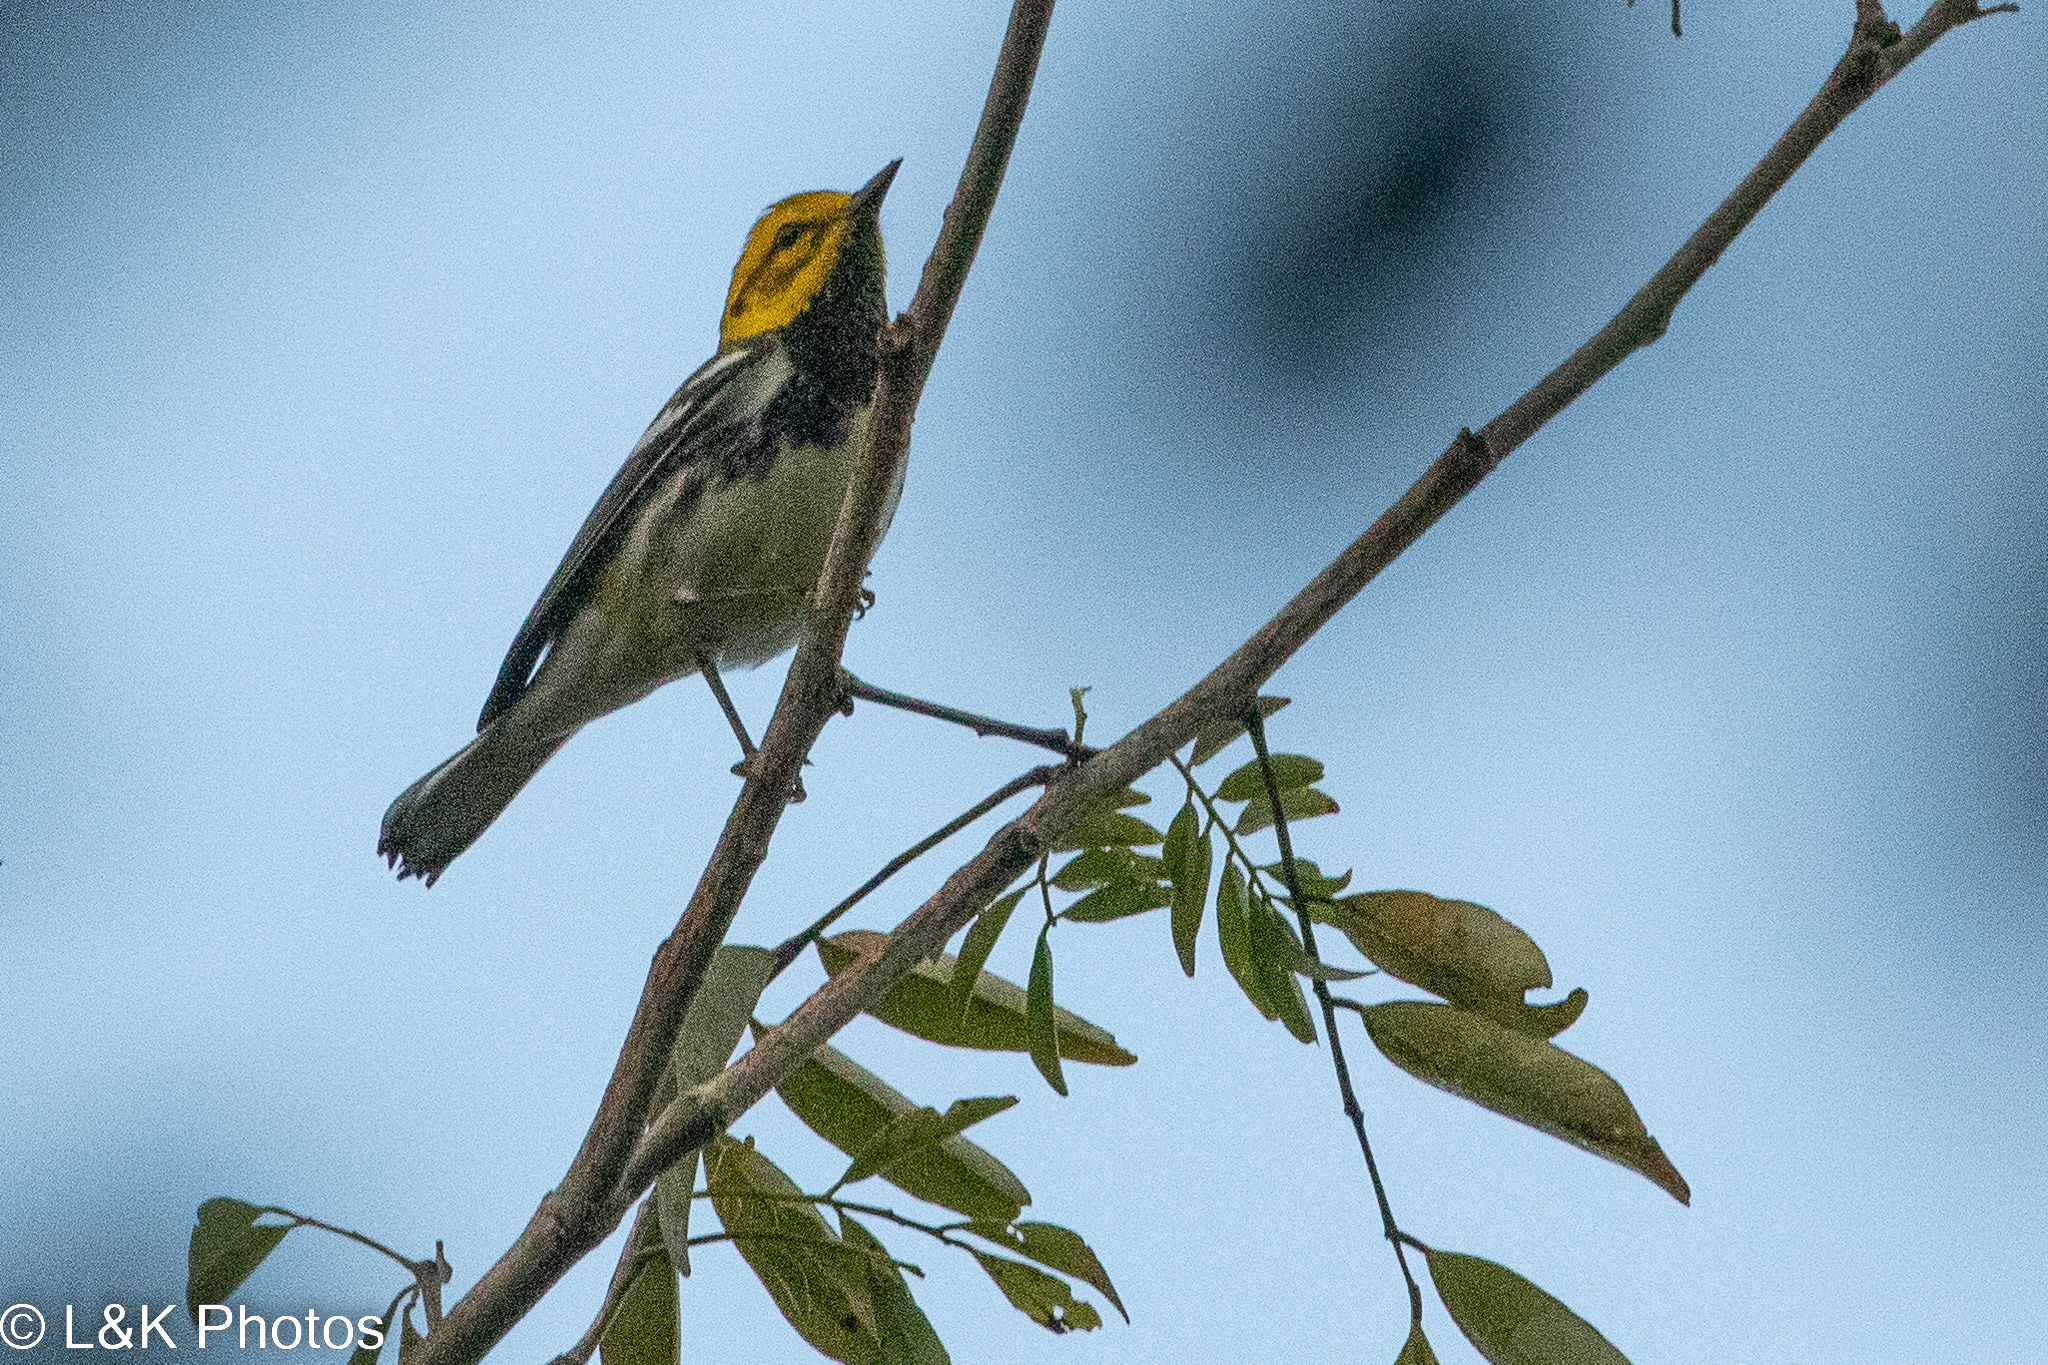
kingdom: Animalia
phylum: Chordata
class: Aves
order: Passeriformes
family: Parulidae
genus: Setophaga
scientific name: Setophaga virens
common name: Black-throated green warbler
